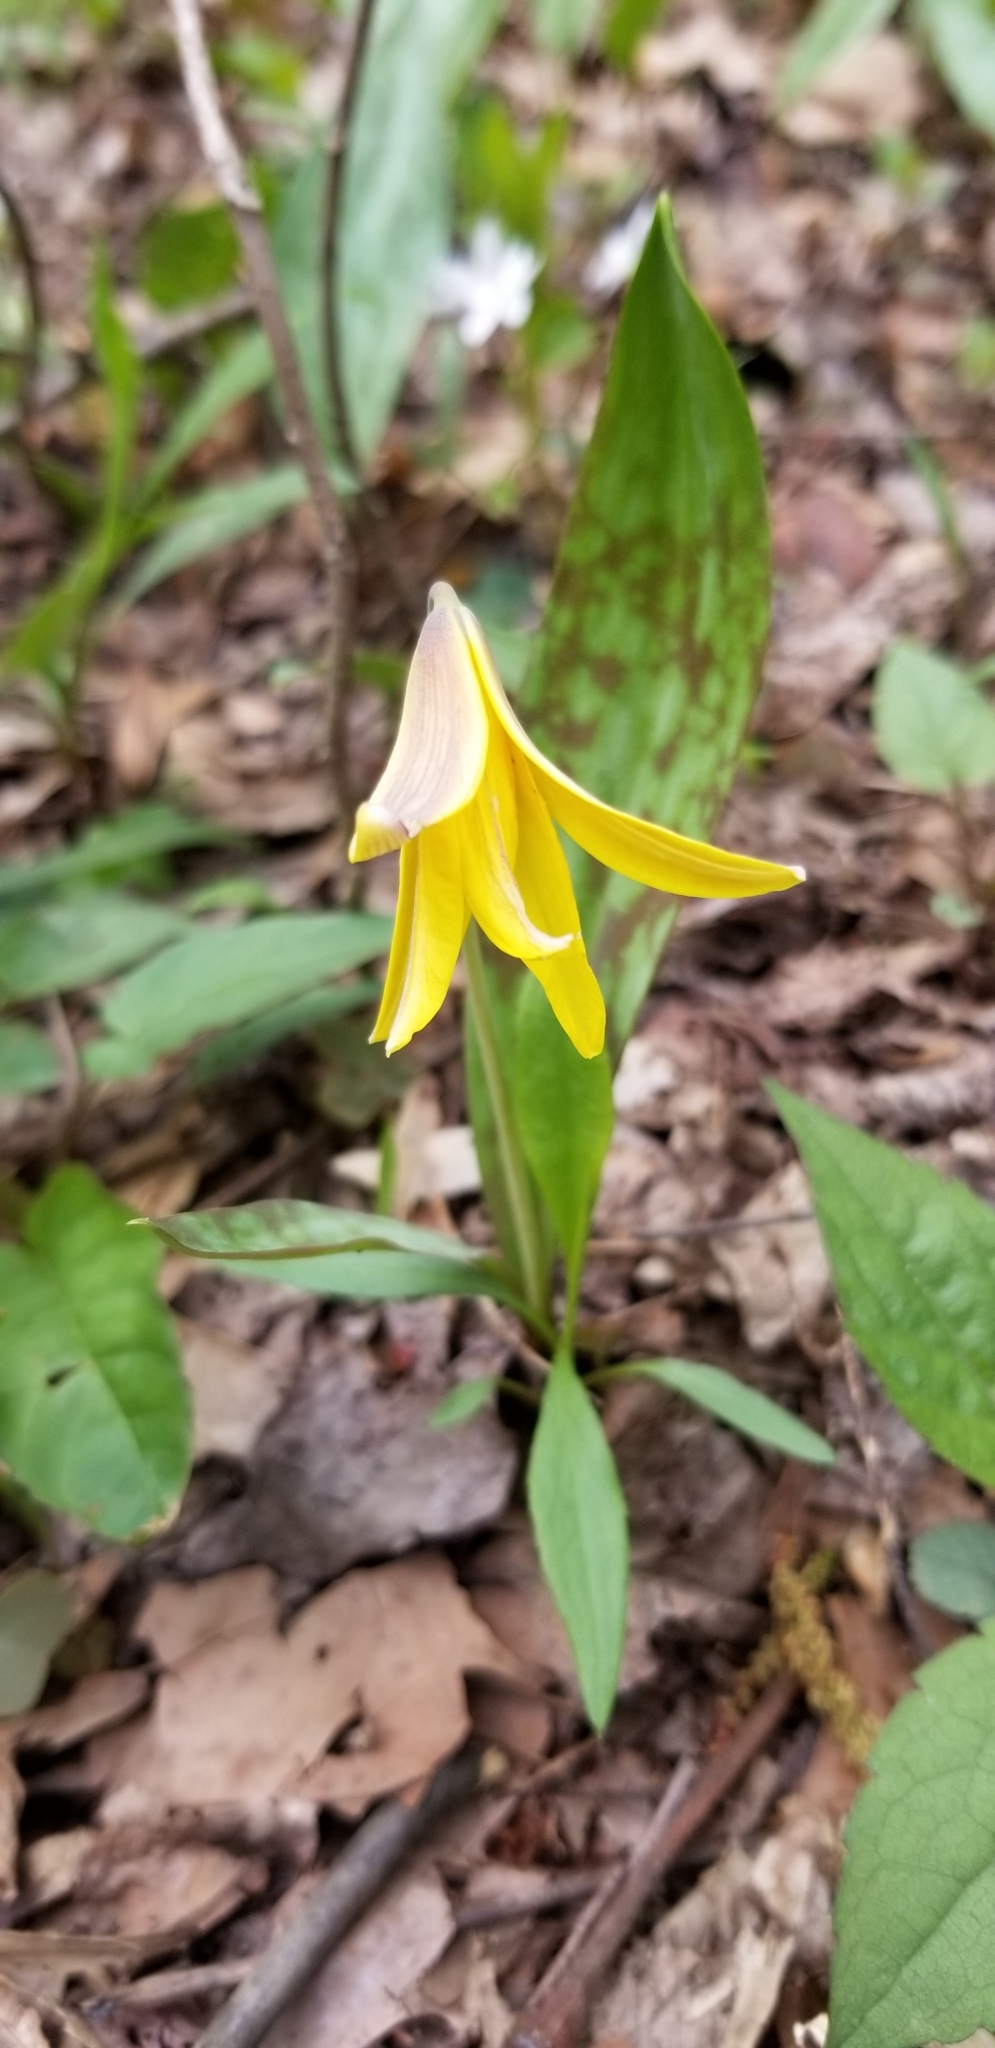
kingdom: Plantae
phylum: Tracheophyta
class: Liliopsida
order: Liliales
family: Liliaceae
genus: Erythronium
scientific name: Erythronium americanum
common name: Yellow adder's-tongue
